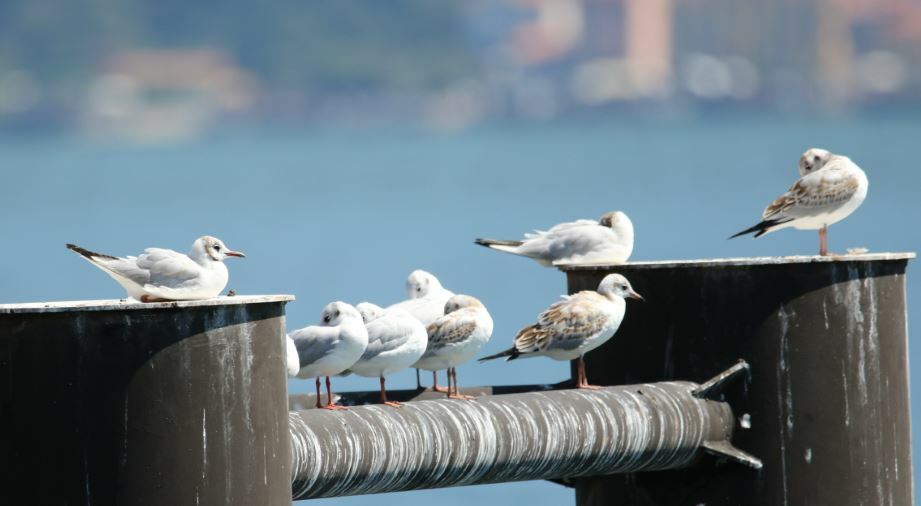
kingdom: Animalia
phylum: Chordata
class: Aves
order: Charadriiformes
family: Laridae
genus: Chroicocephalus
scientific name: Chroicocephalus ridibundus
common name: Black-headed gull
